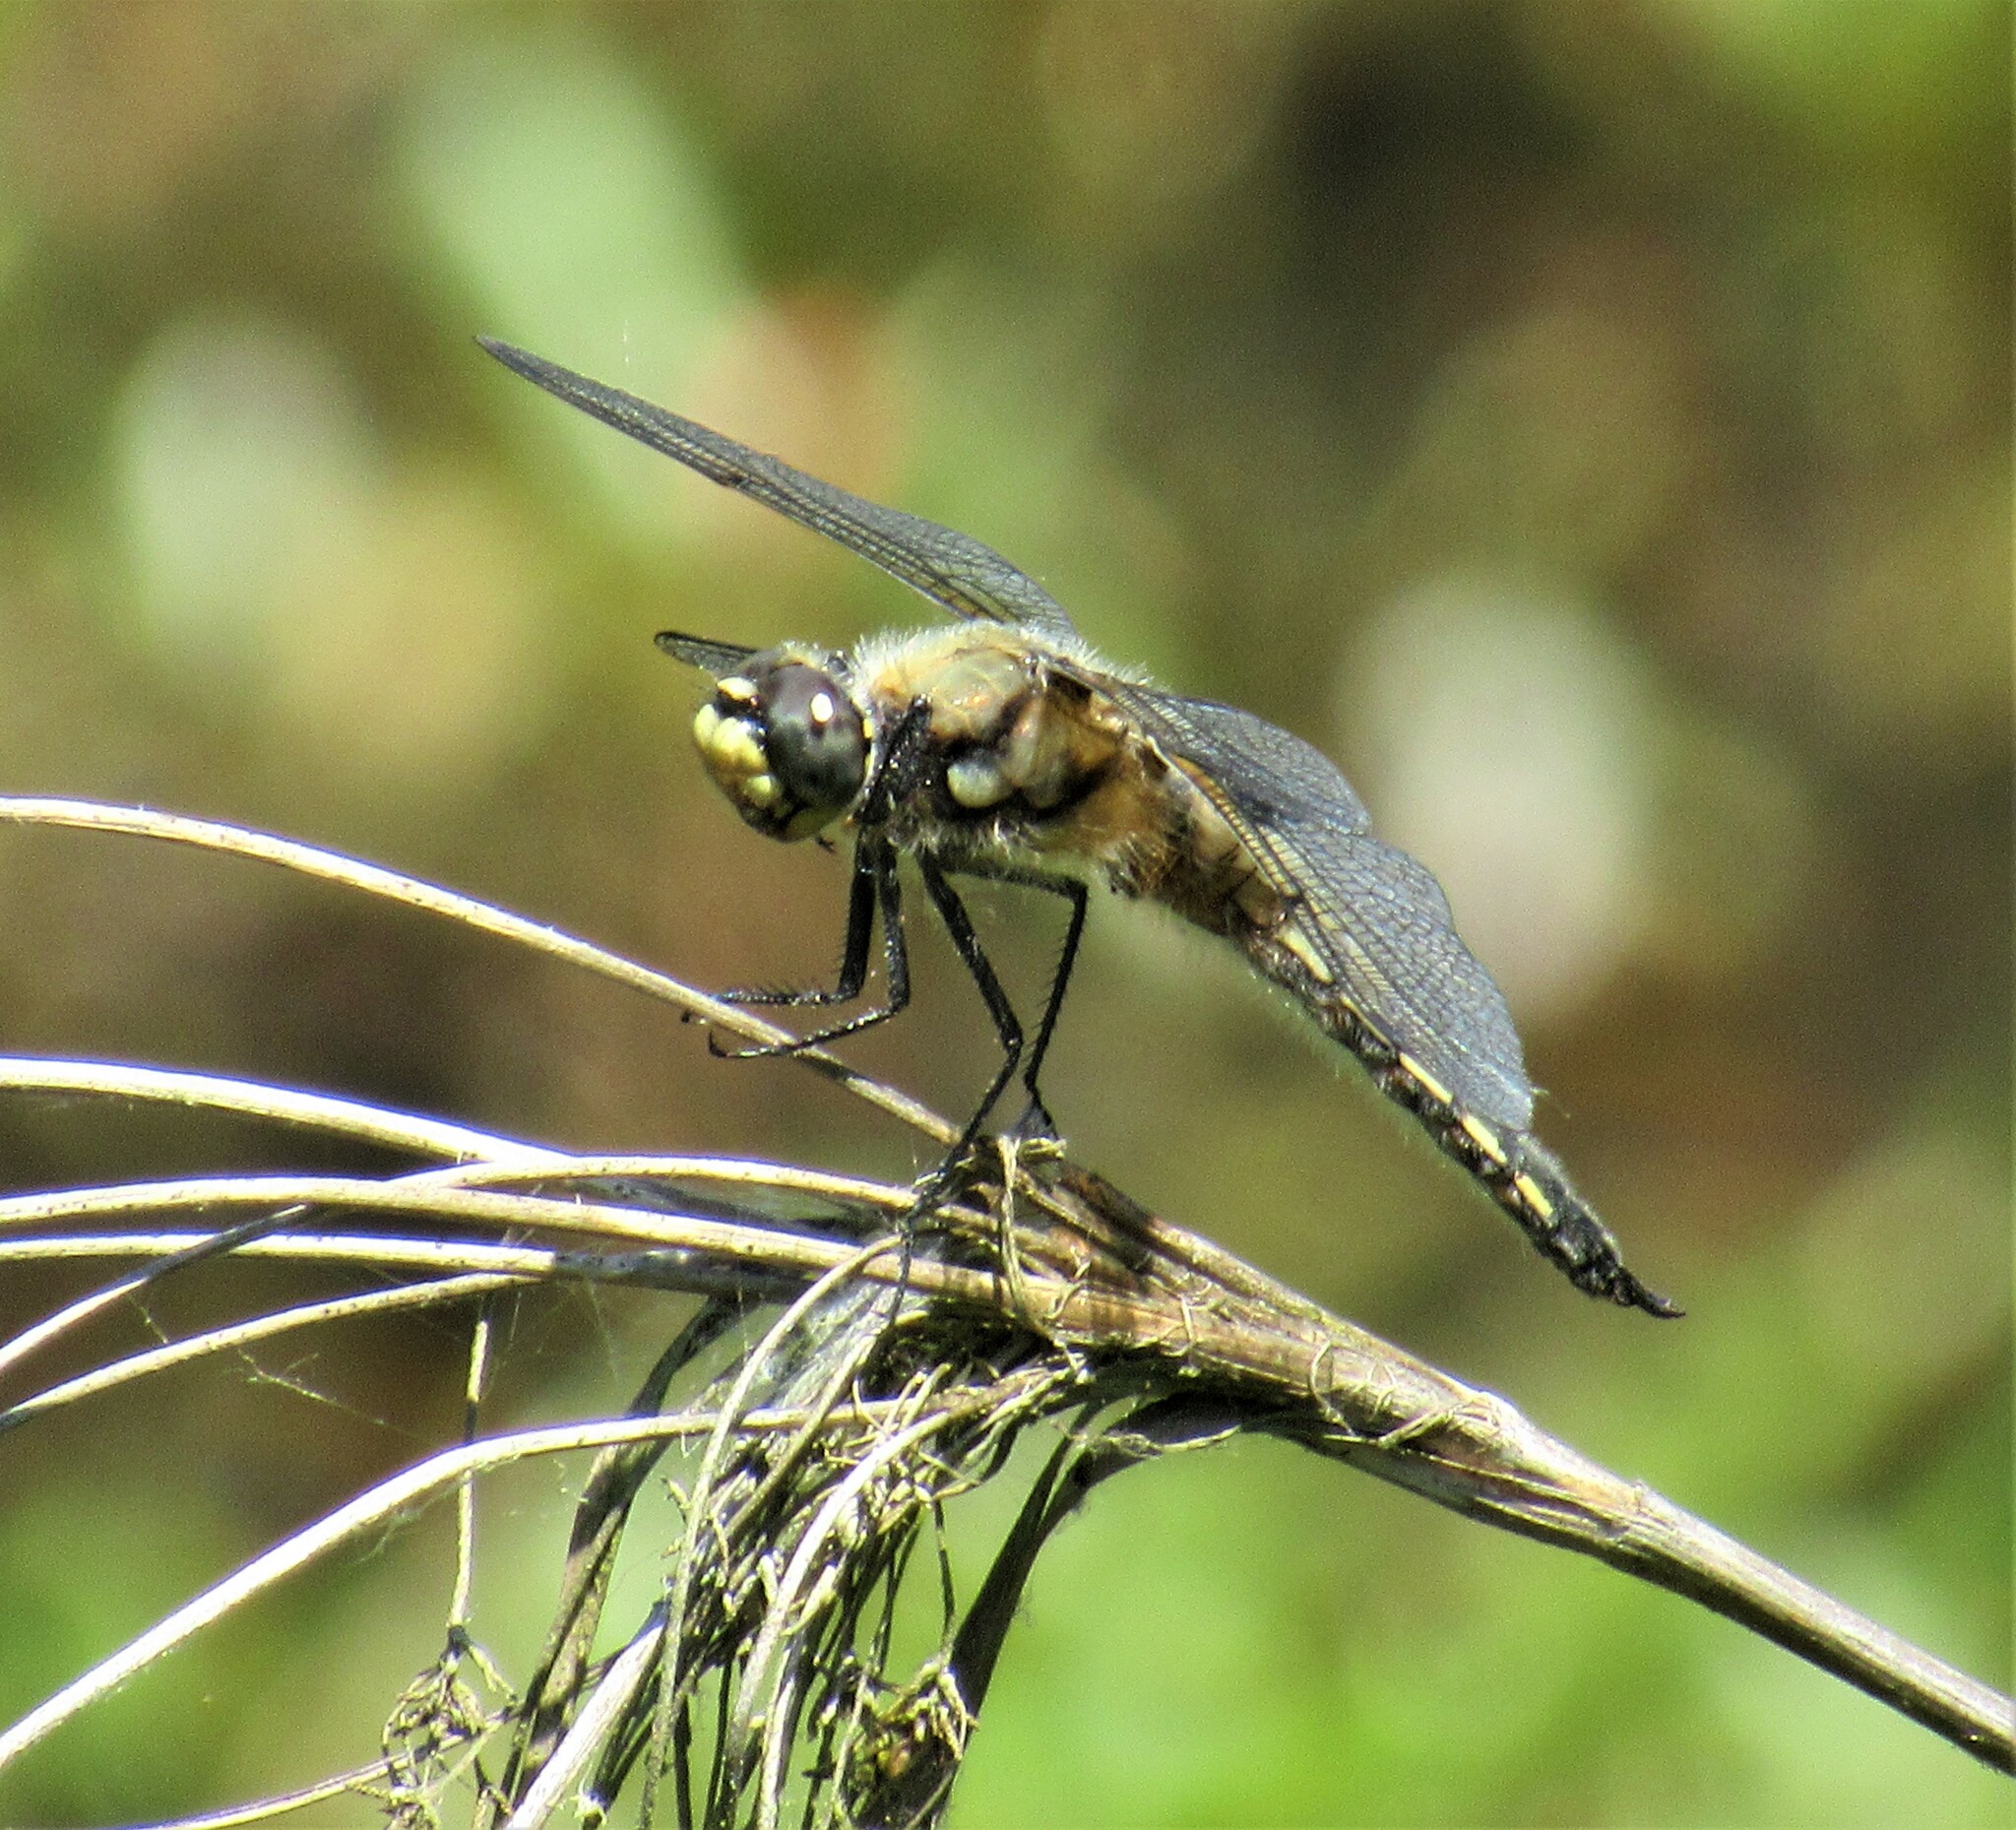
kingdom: Animalia
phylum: Arthropoda
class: Insecta
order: Odonata
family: Libellulidae
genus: Libellula
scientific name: Libellula quadrimaculata
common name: Four-spotted chaser
